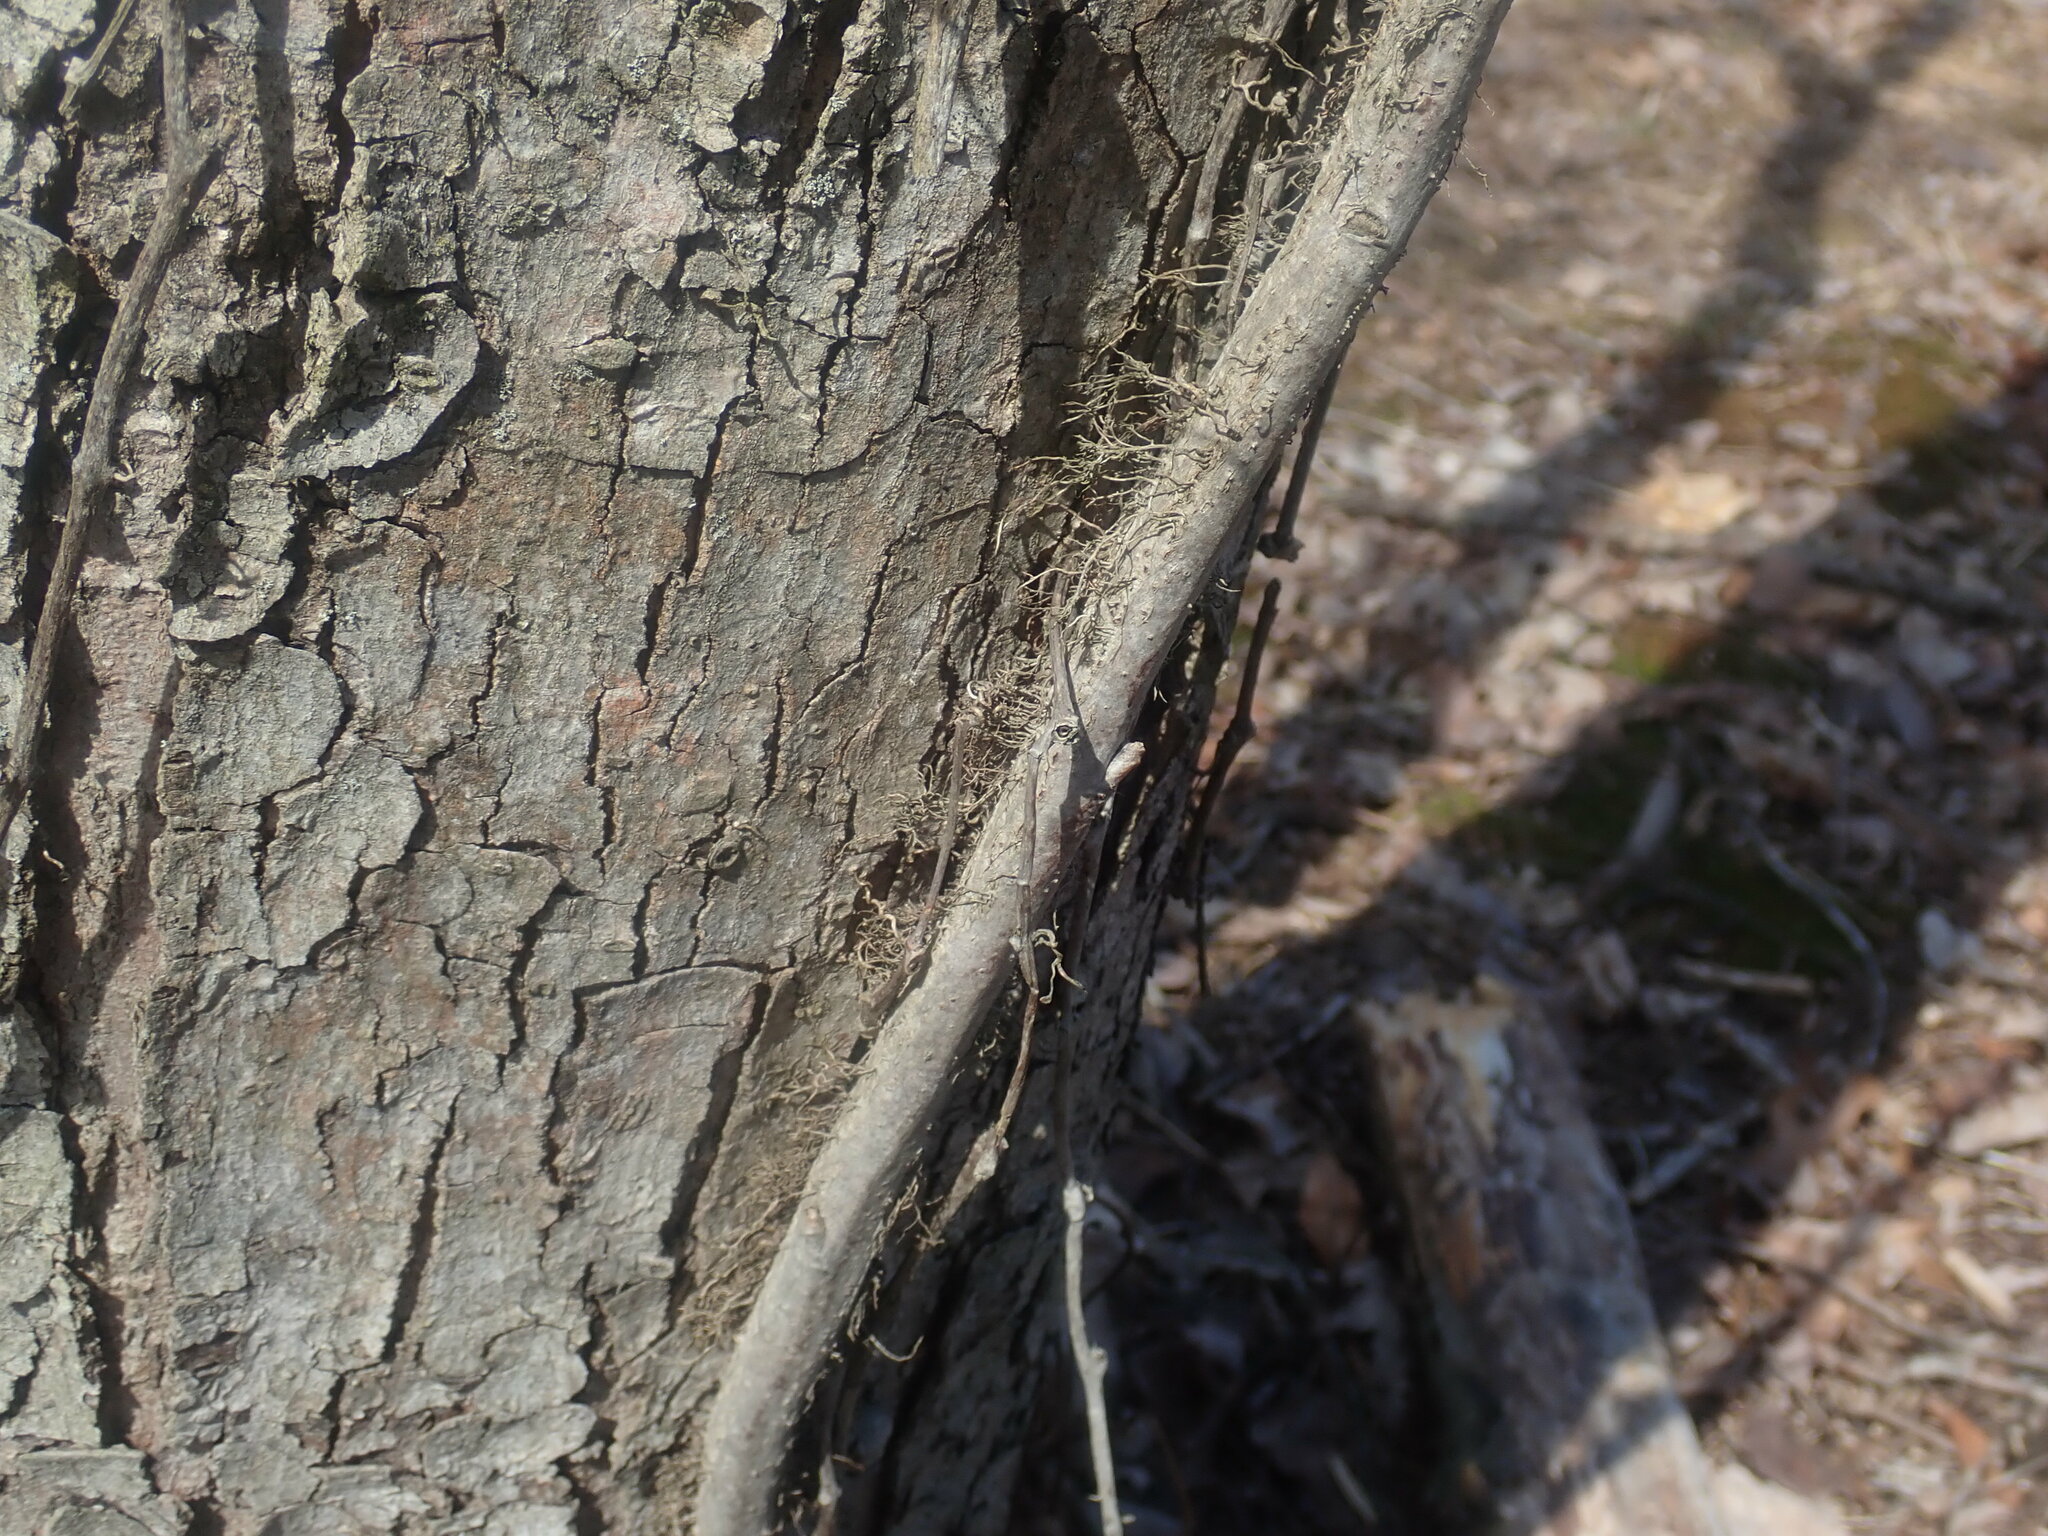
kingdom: Plantae
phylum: Tracheophyta
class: Magnoliopsida
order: Sapindales
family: Anacardiaceae
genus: Toxicodendron
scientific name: Toxicodendron radicans
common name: Poison ivy
